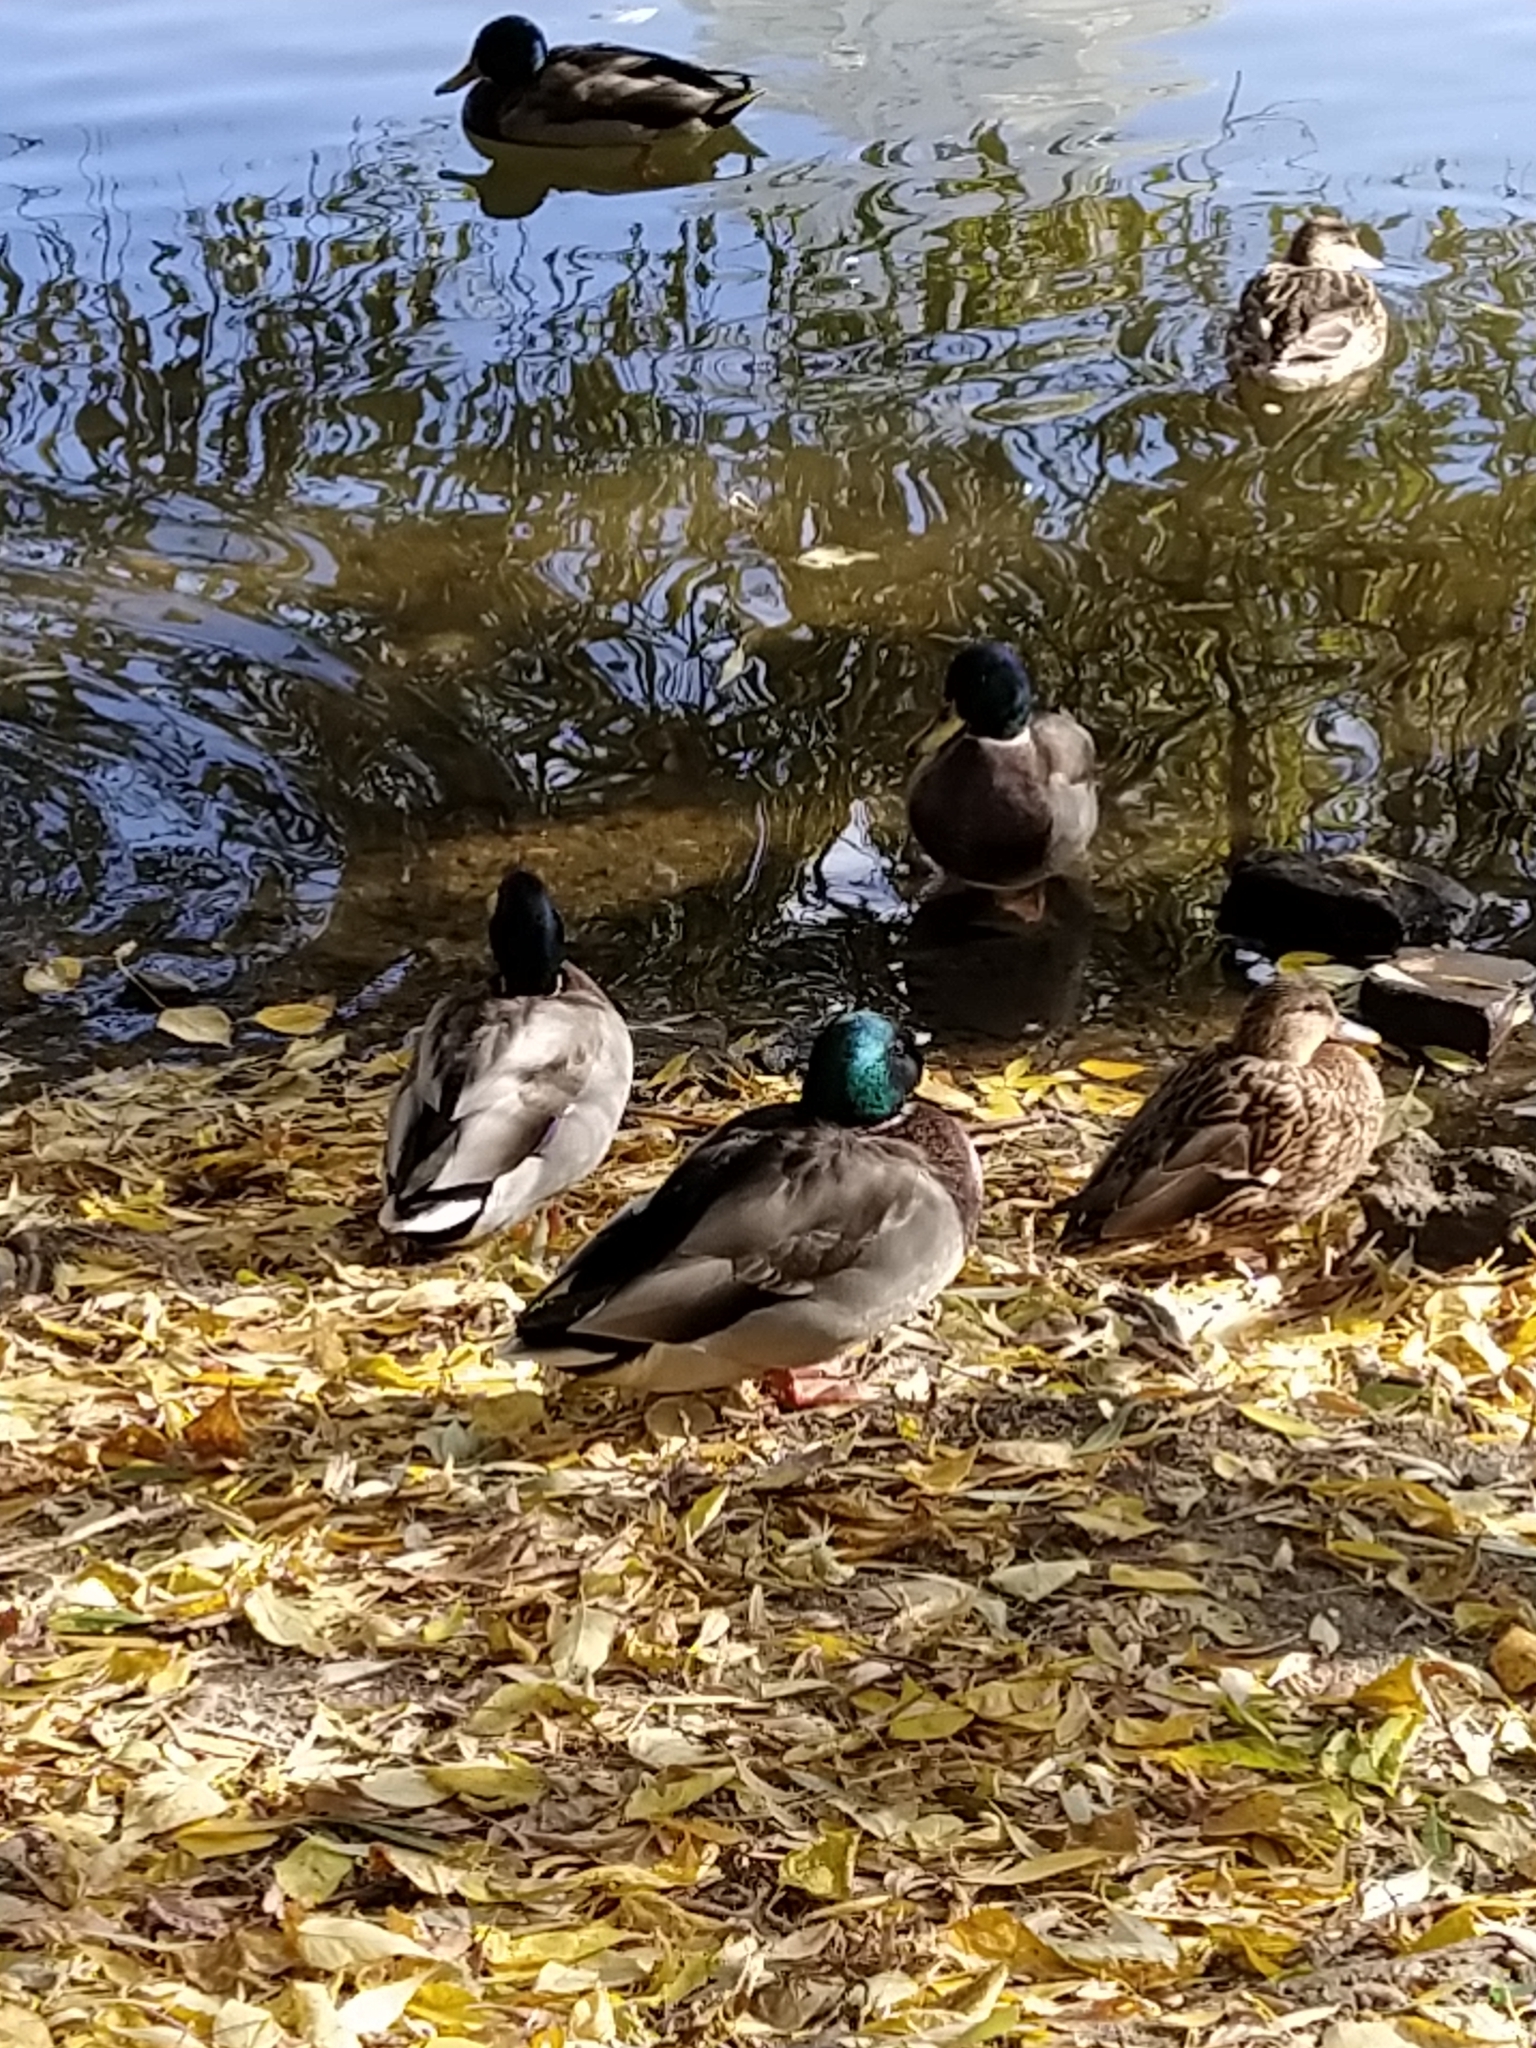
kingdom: Animalia
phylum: Chordata
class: Aves
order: Anseriformes
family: Anatidae
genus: Anas
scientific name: Anas platyrhynchos
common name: Mallard
